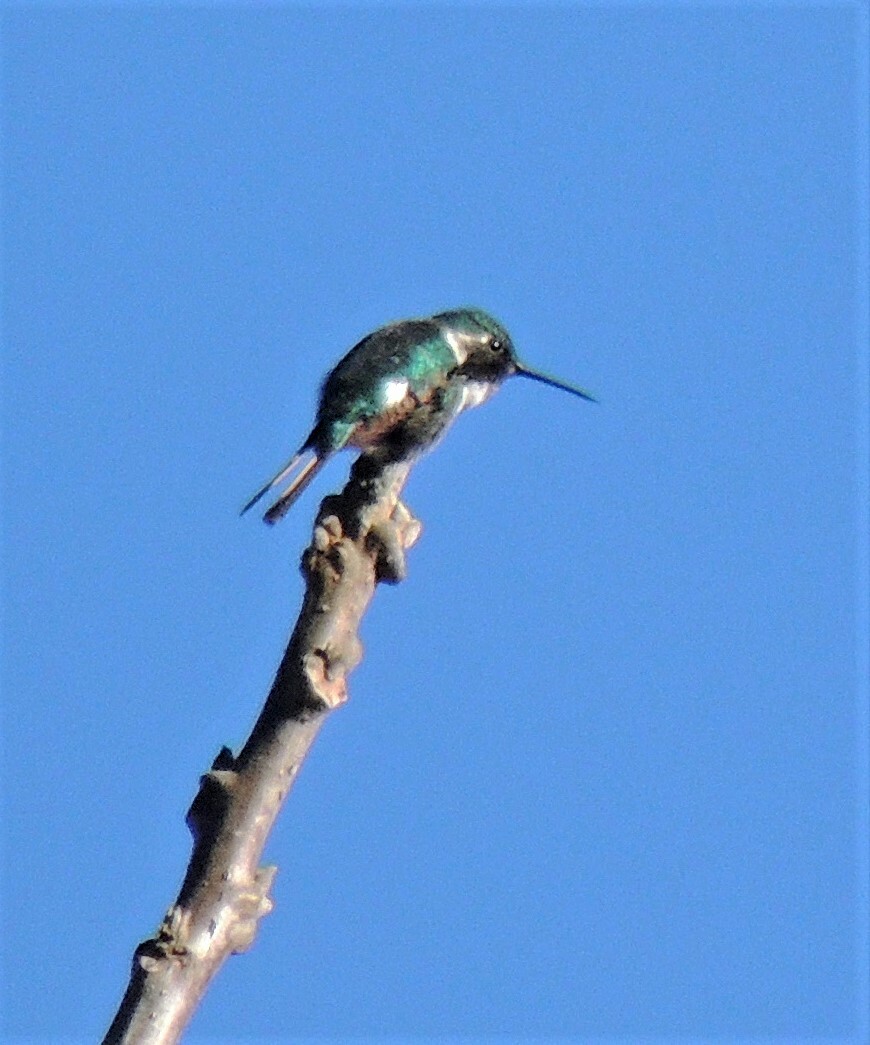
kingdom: Animalia
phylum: Chordata
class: Aves
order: Apodiformes
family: Trochilidae
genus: Microstilbon
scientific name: Microstilbon burmeisteri
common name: Slender-tailed woodstar
